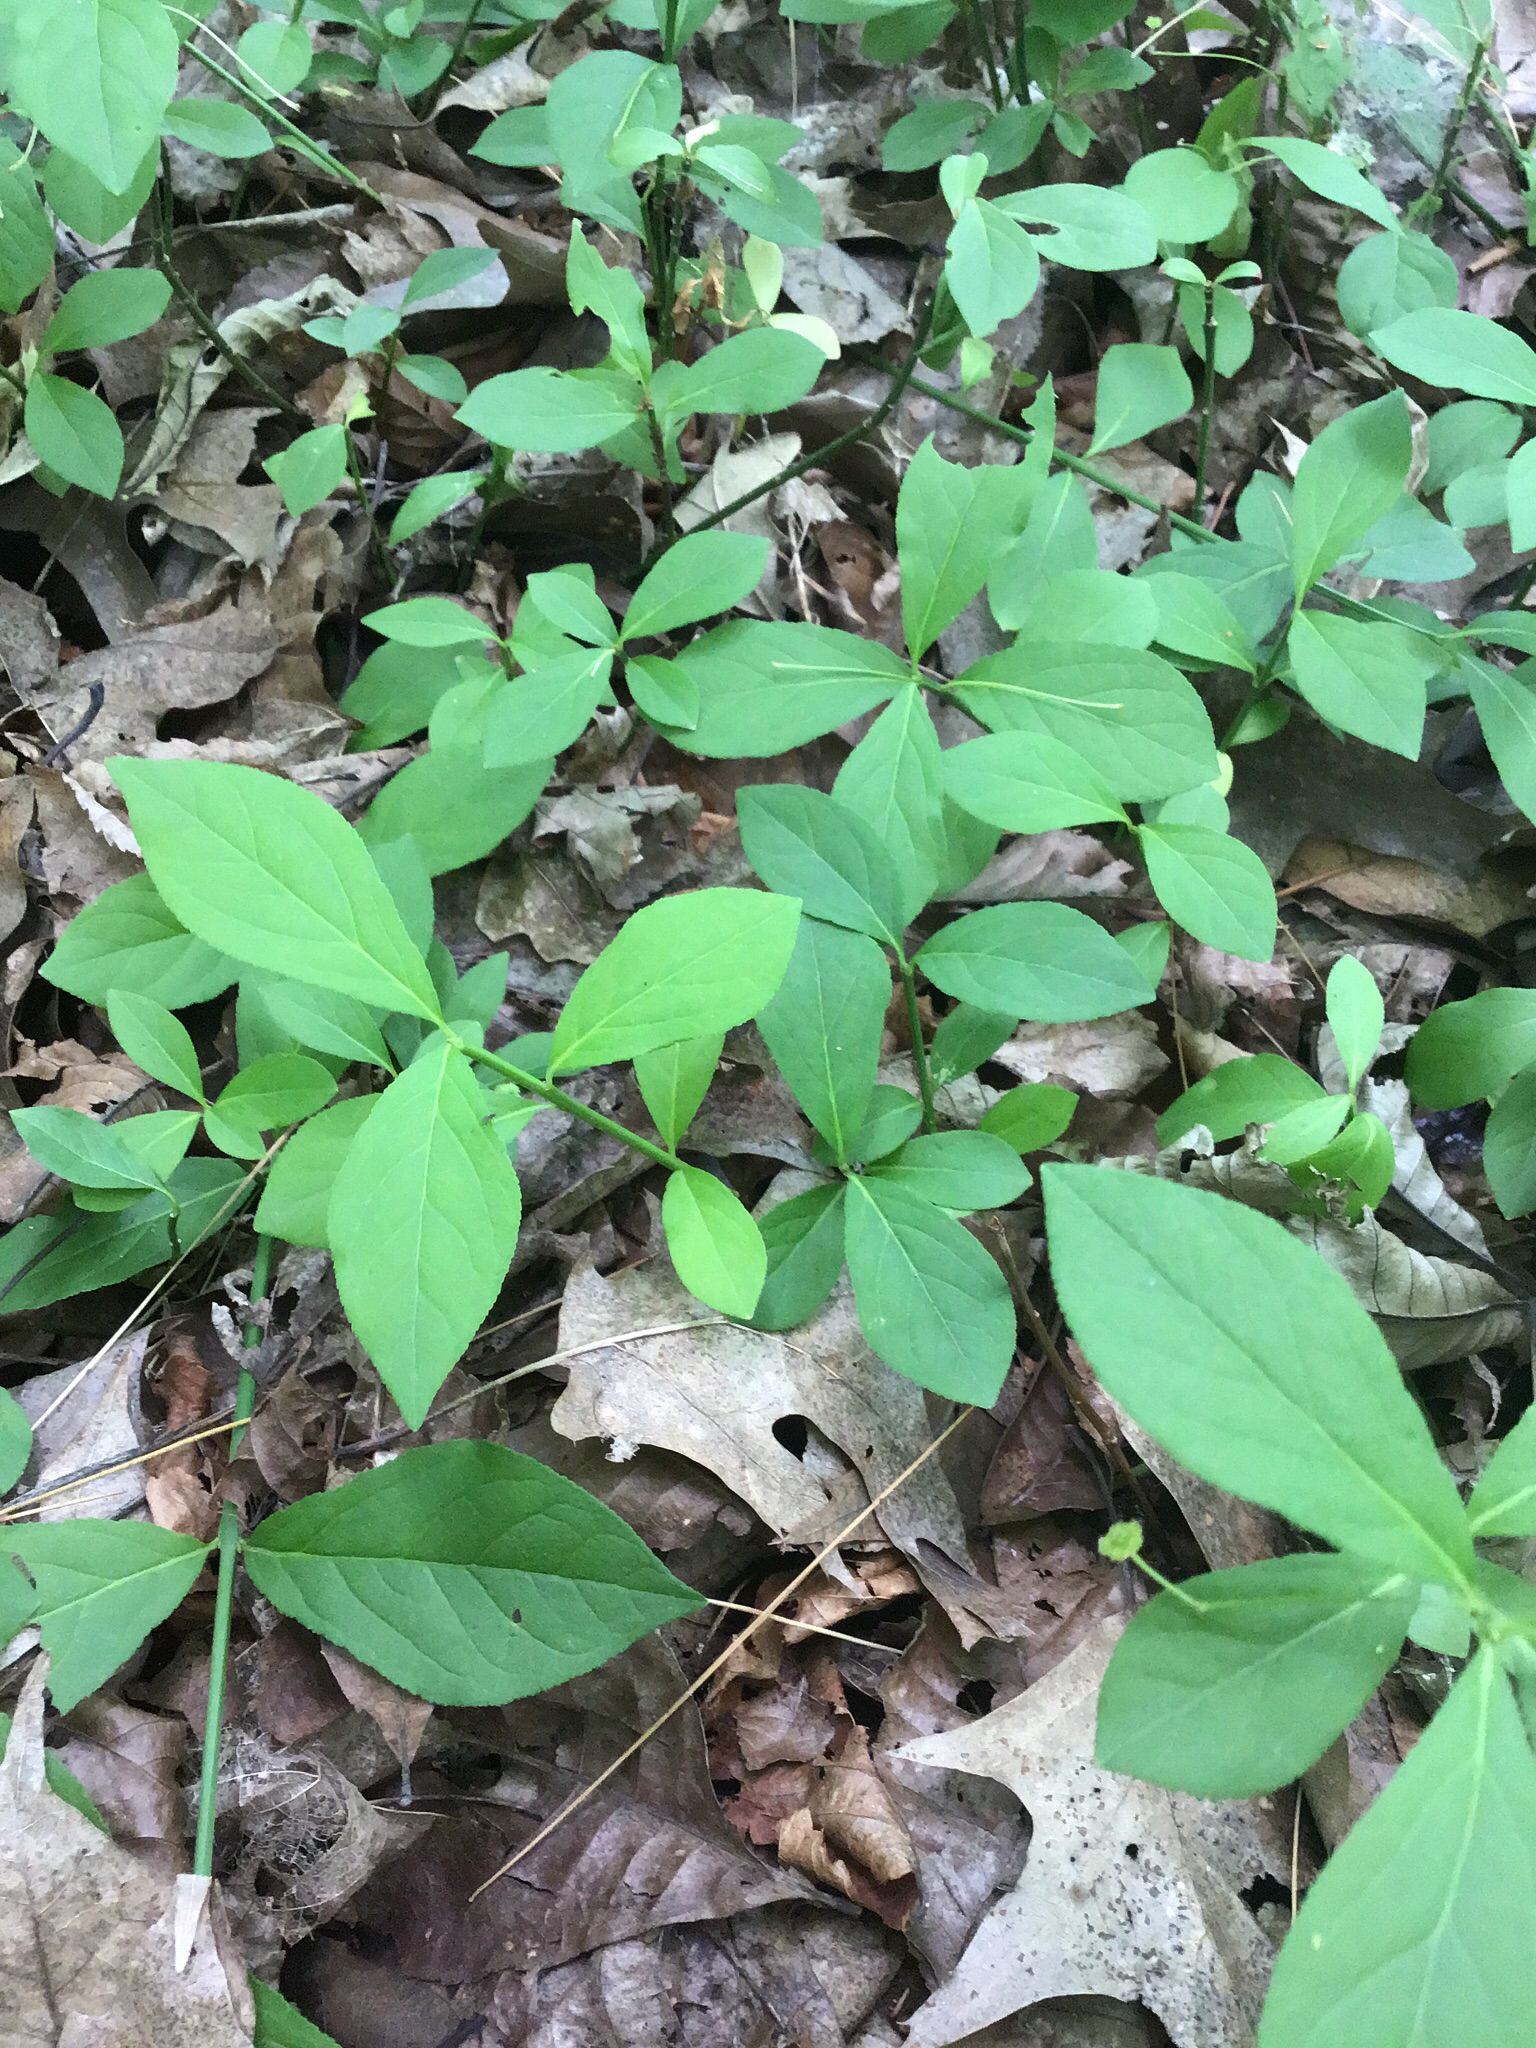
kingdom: Plantae
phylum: Tracheophyta
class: Magnoliopsida
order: Celastrales
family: Celastraceae
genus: Euonymus
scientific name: Euonymus obovatus
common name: Running strawberry-bush
